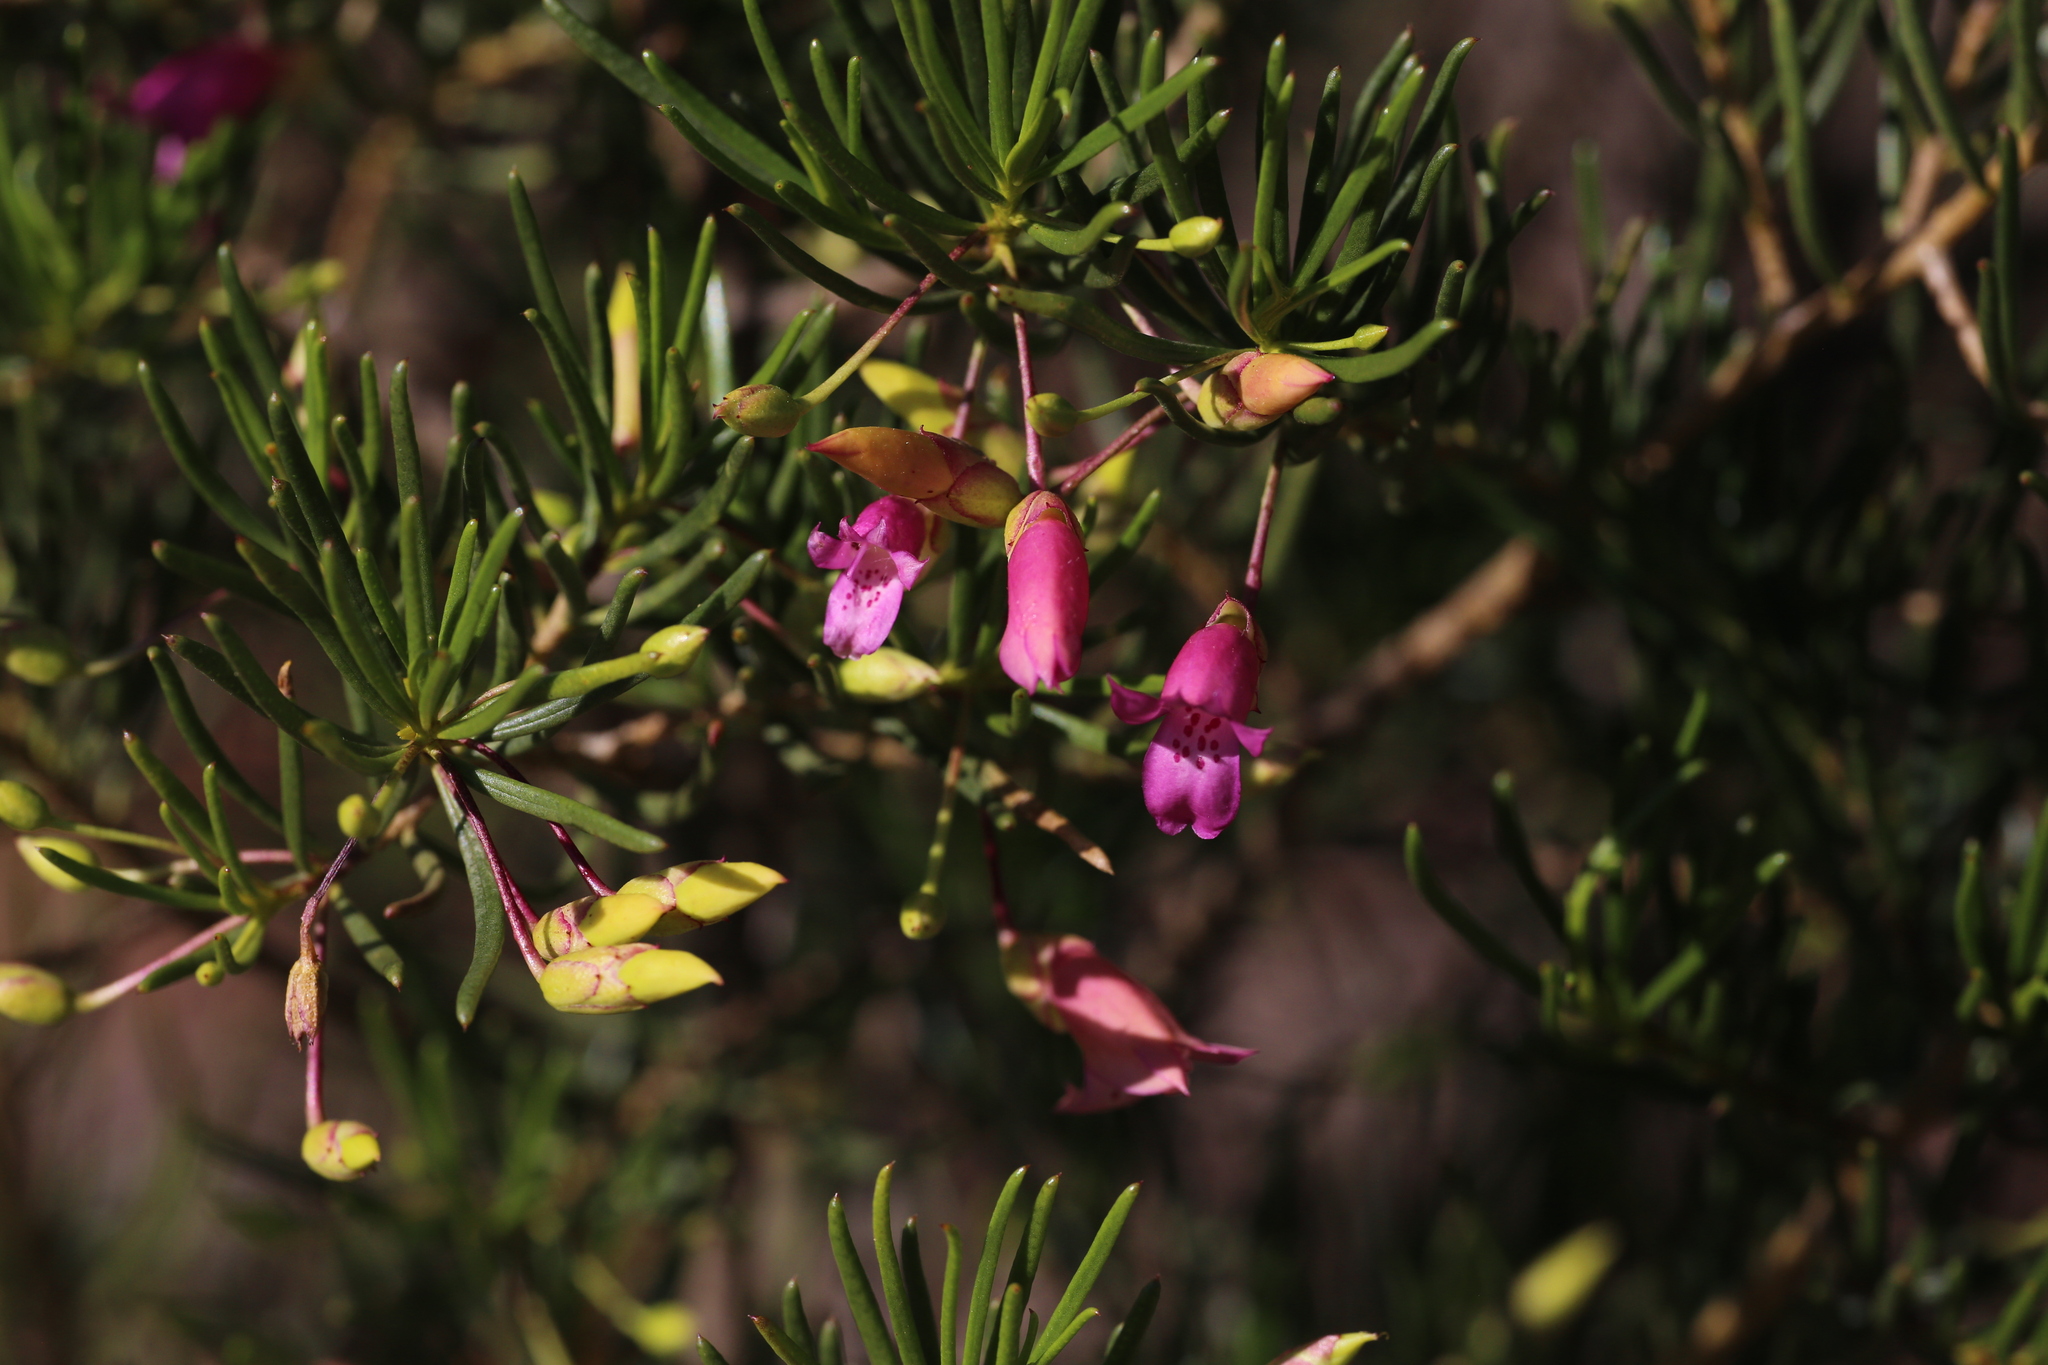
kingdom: Plantae
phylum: Tracheophyta
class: Magnoliopsida
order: Lamiales
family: Scrophulariaceae
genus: Eremophila
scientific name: Eremophila alternifolia
